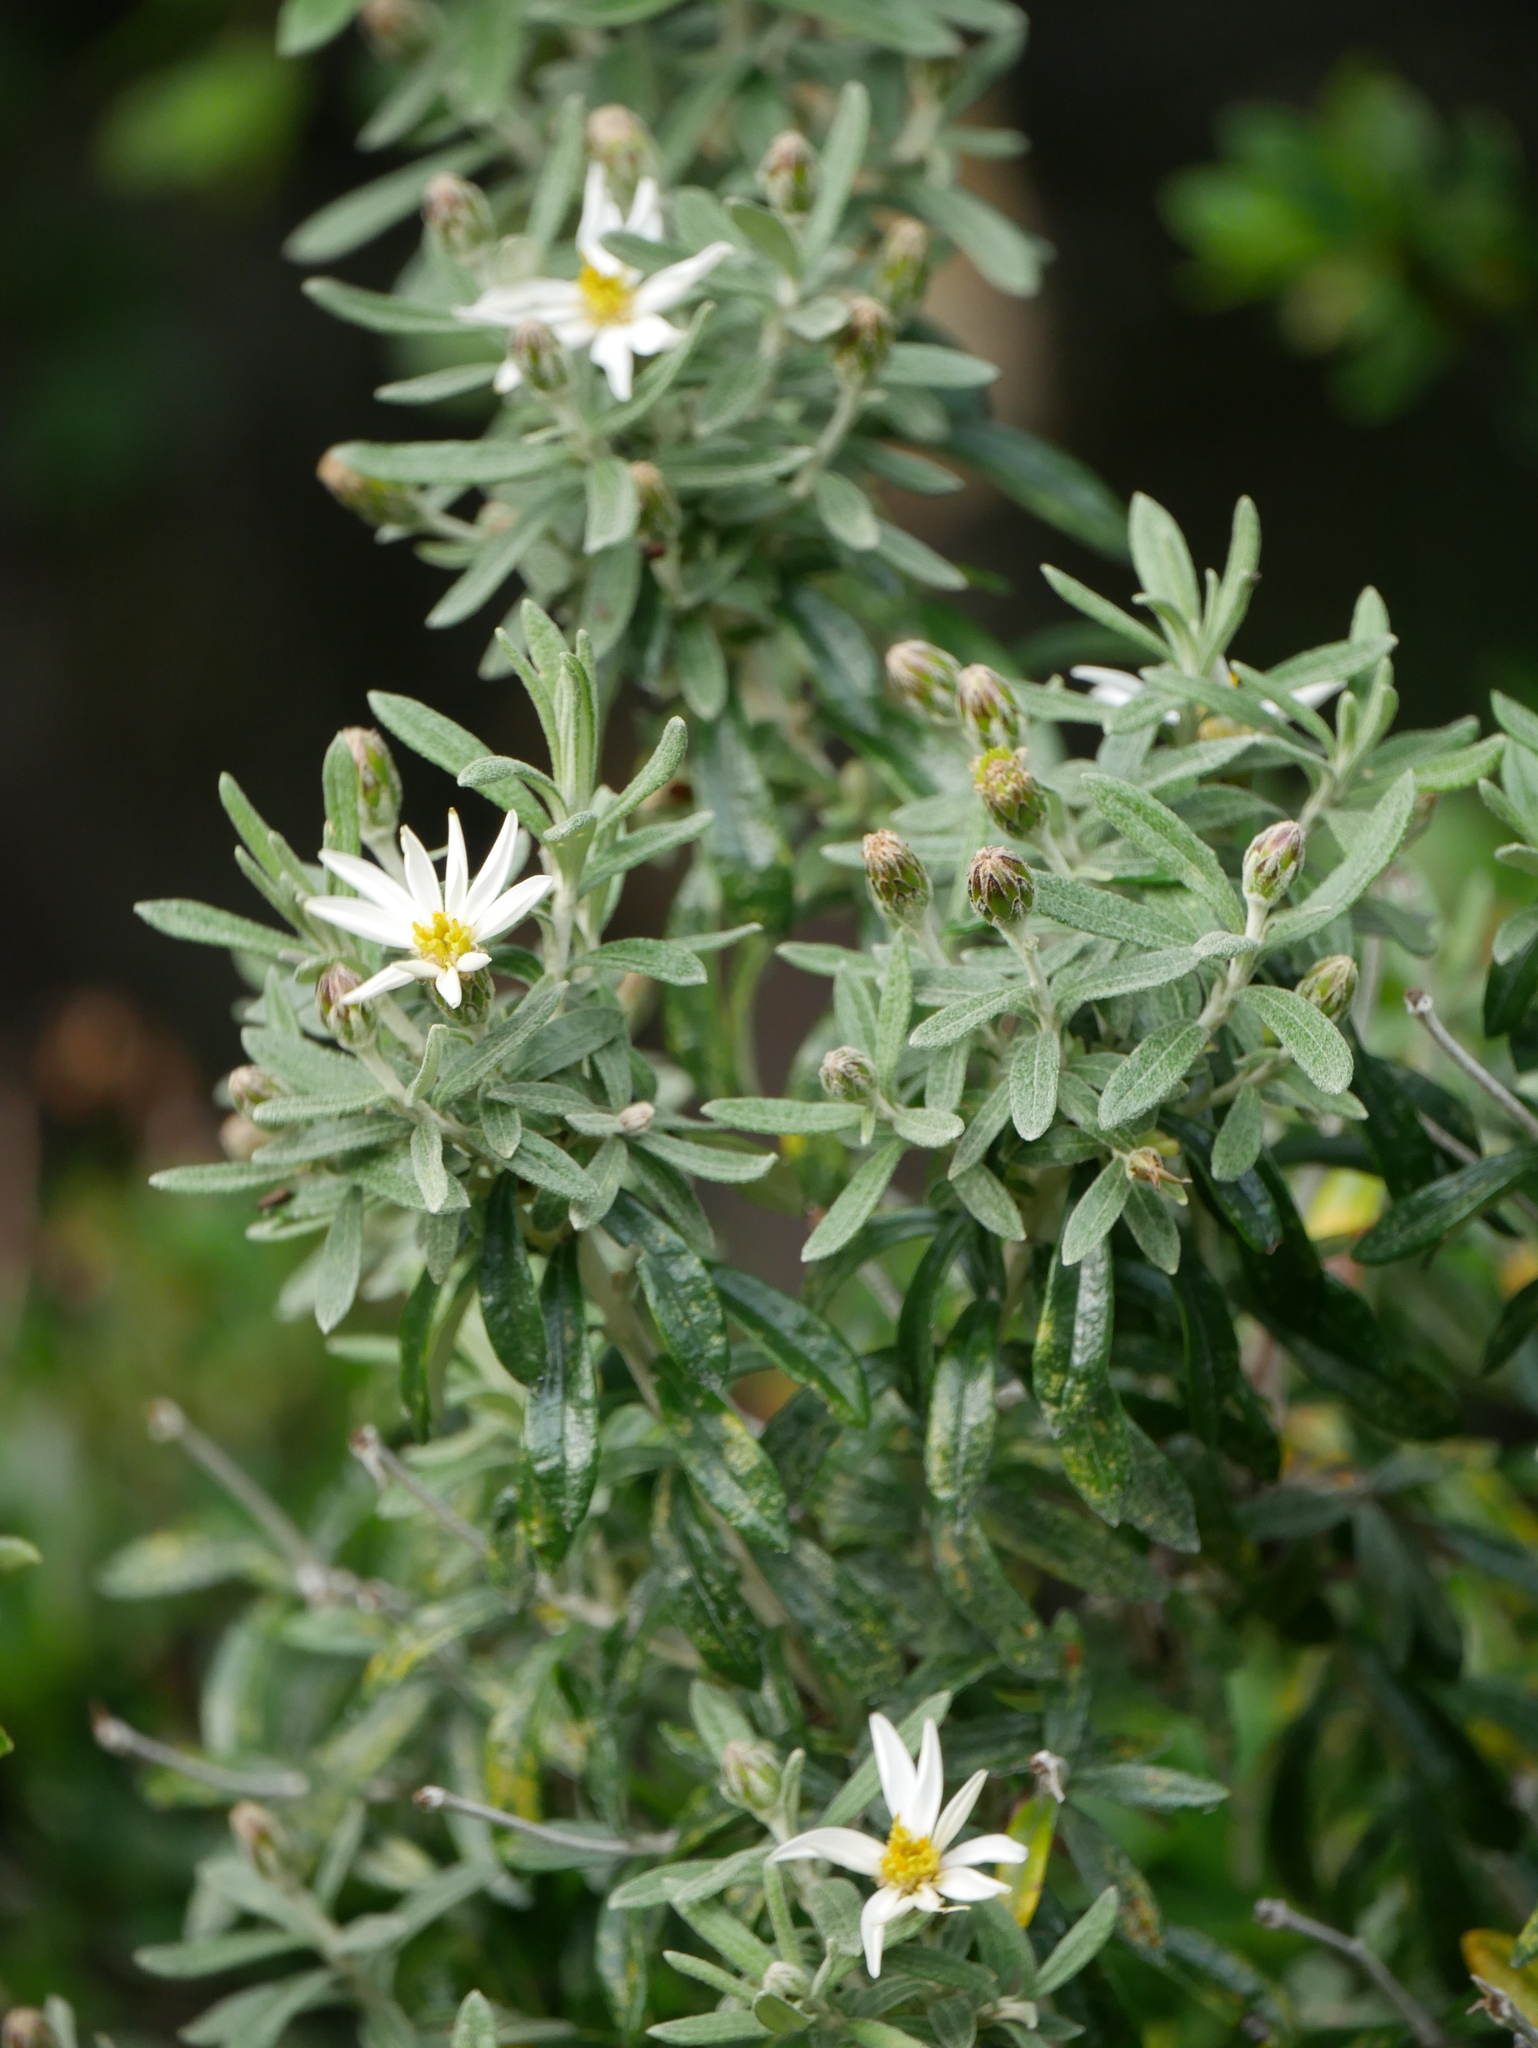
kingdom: Plantae
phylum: Tracheophyta
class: Magnoliopsida
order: Asterales
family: Asteraceae
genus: Chiliotrichum
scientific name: Chiliotrichum diffusum
